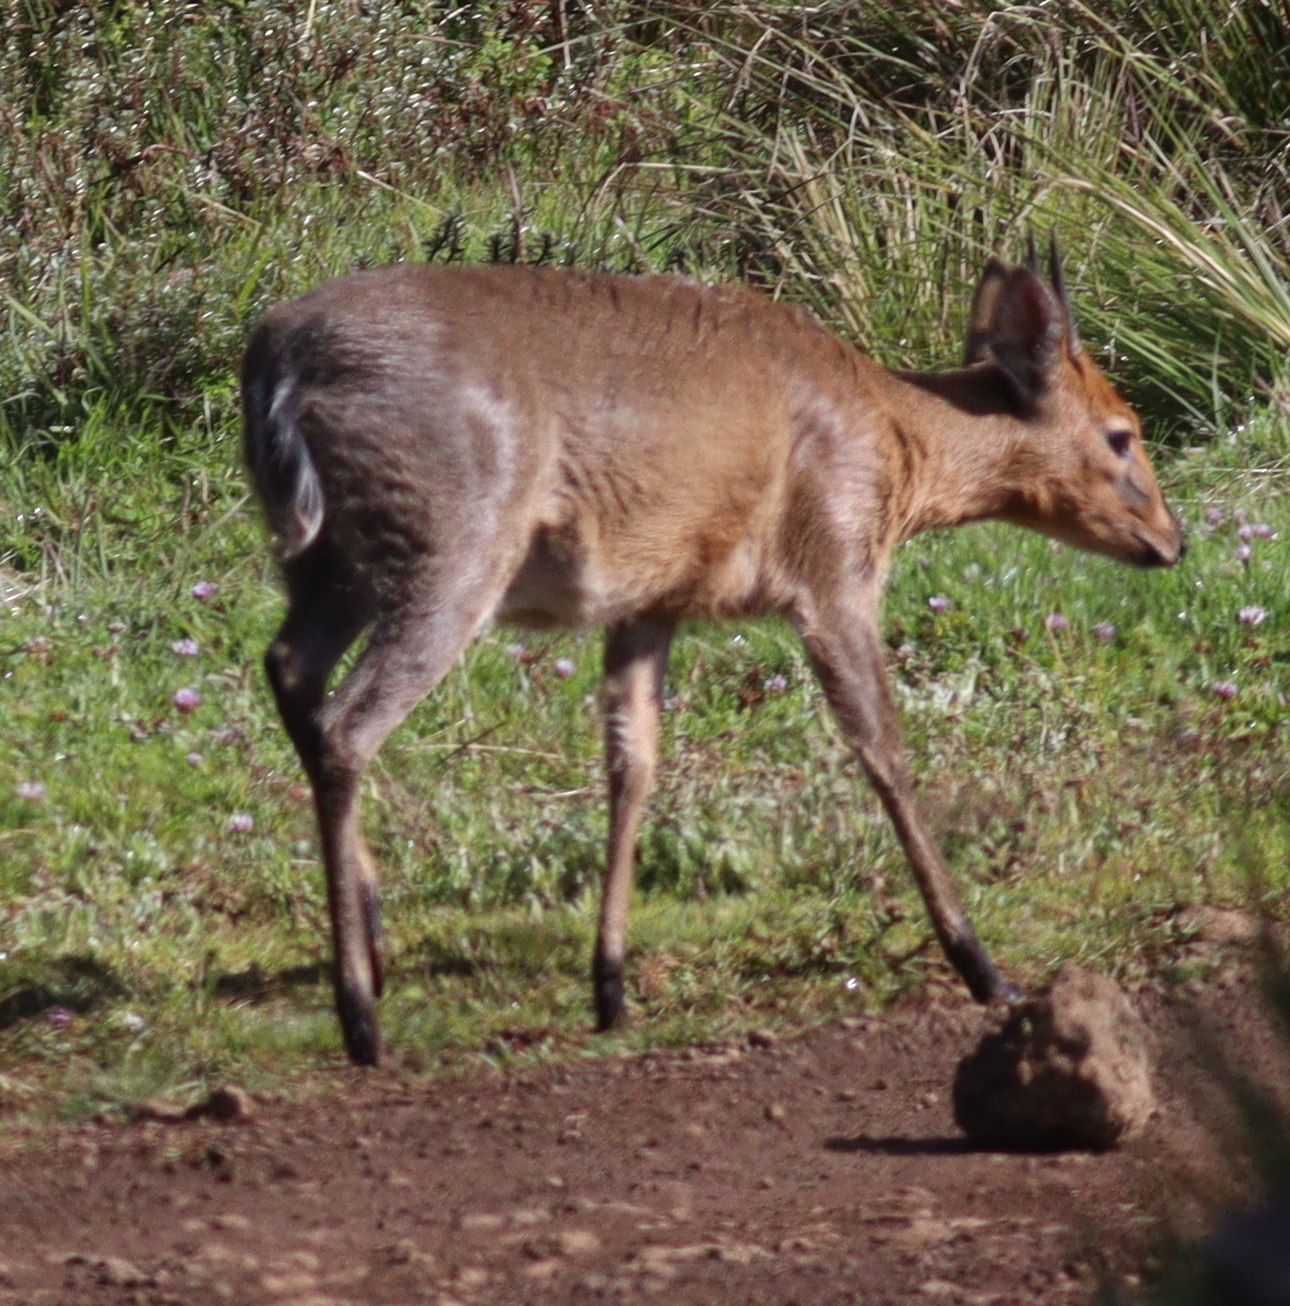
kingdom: Animalia
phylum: Chordata
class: Mammalia
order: Artiodactyla
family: Bovidae
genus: Sylvicapra
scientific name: Sylvicapra grimmia
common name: Bush duiker
